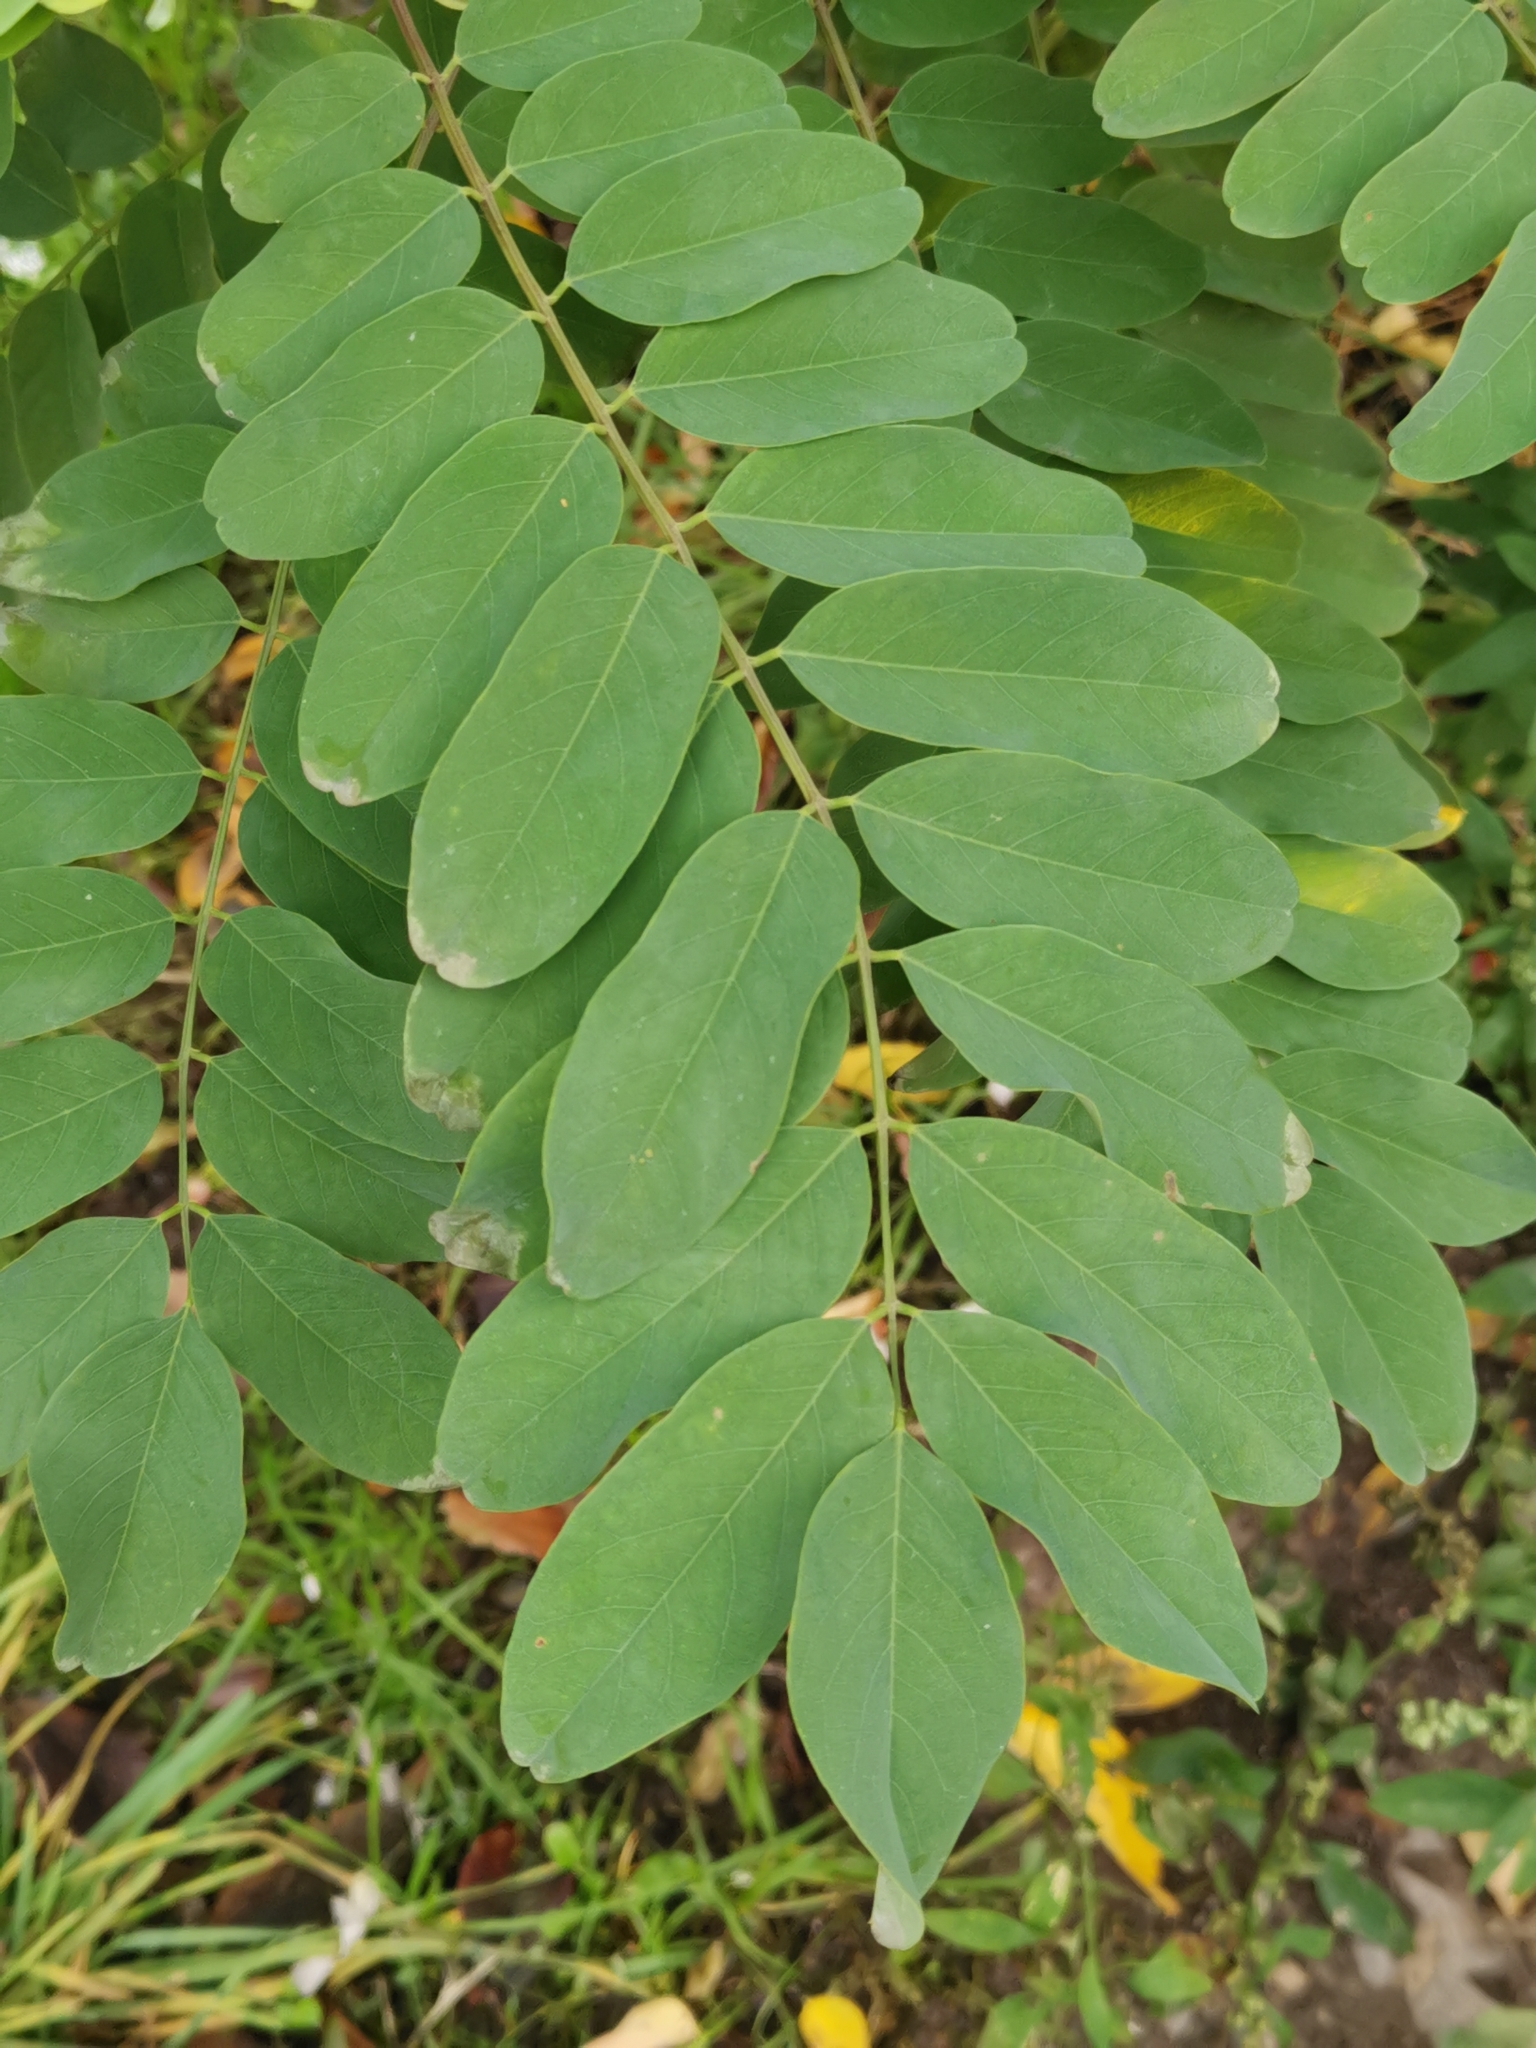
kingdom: Plantae
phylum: Tracheophyta
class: Magnoliopsida
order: Fabales
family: Fabaceae
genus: Robinia
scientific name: Robinia pseudoacacia
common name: Black locust
